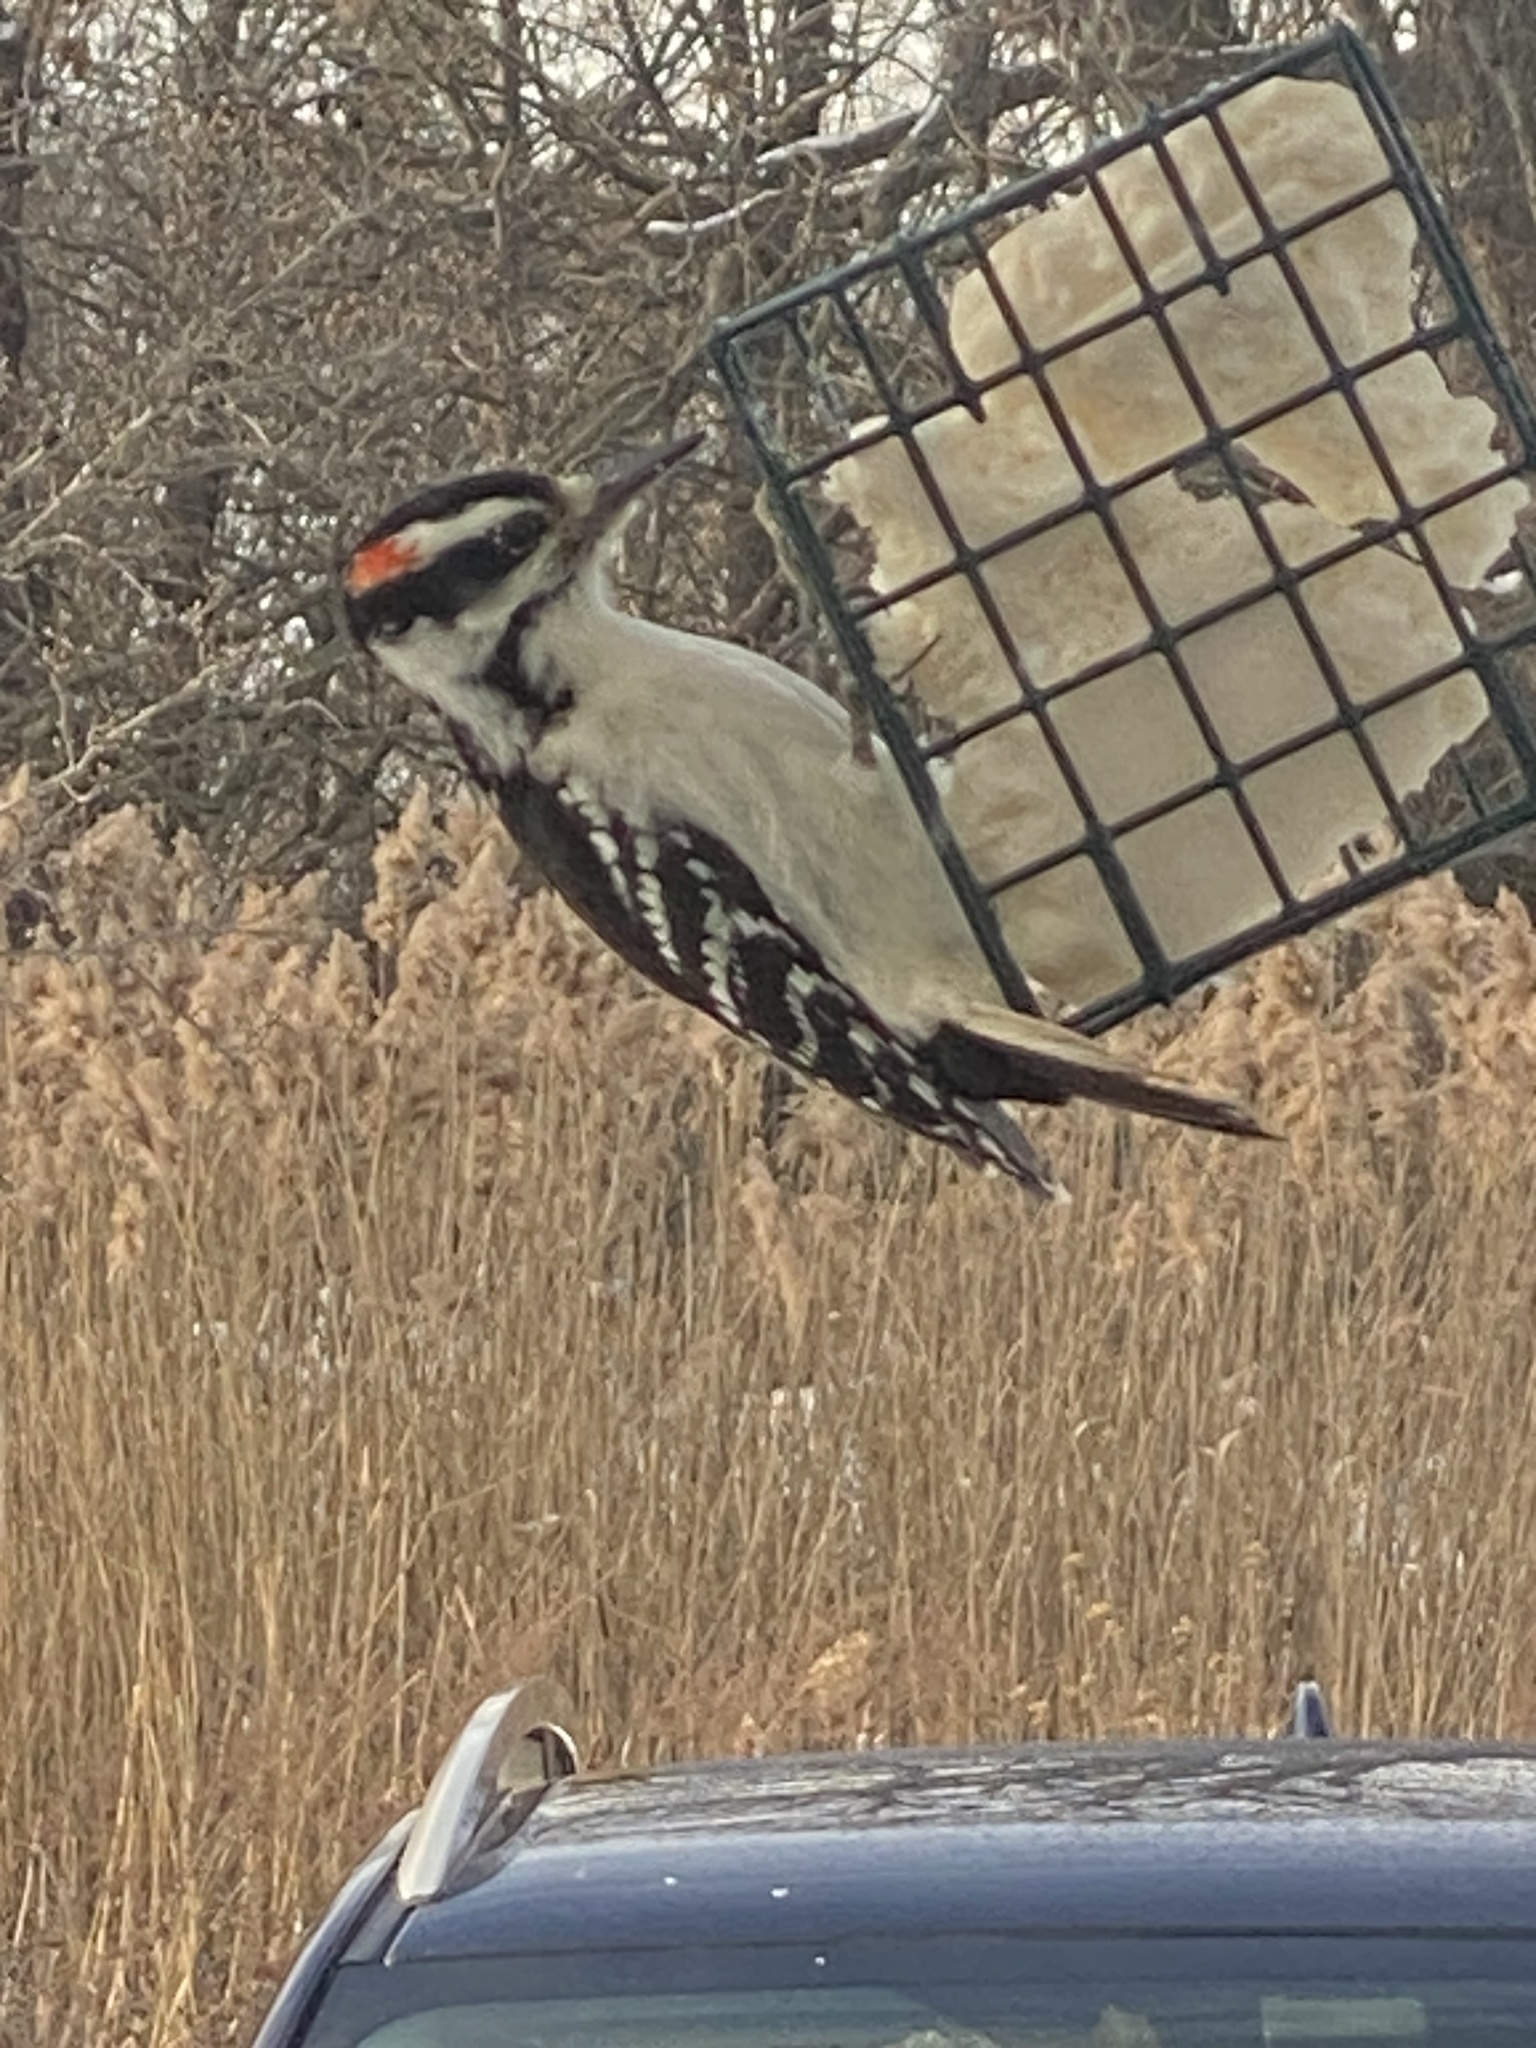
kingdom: Animalia
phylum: Chordata
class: Aves
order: Piciformes
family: Picidae
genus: Leuconotopicus
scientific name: Leuconotopicus villosus
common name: Hairy woodpecker
